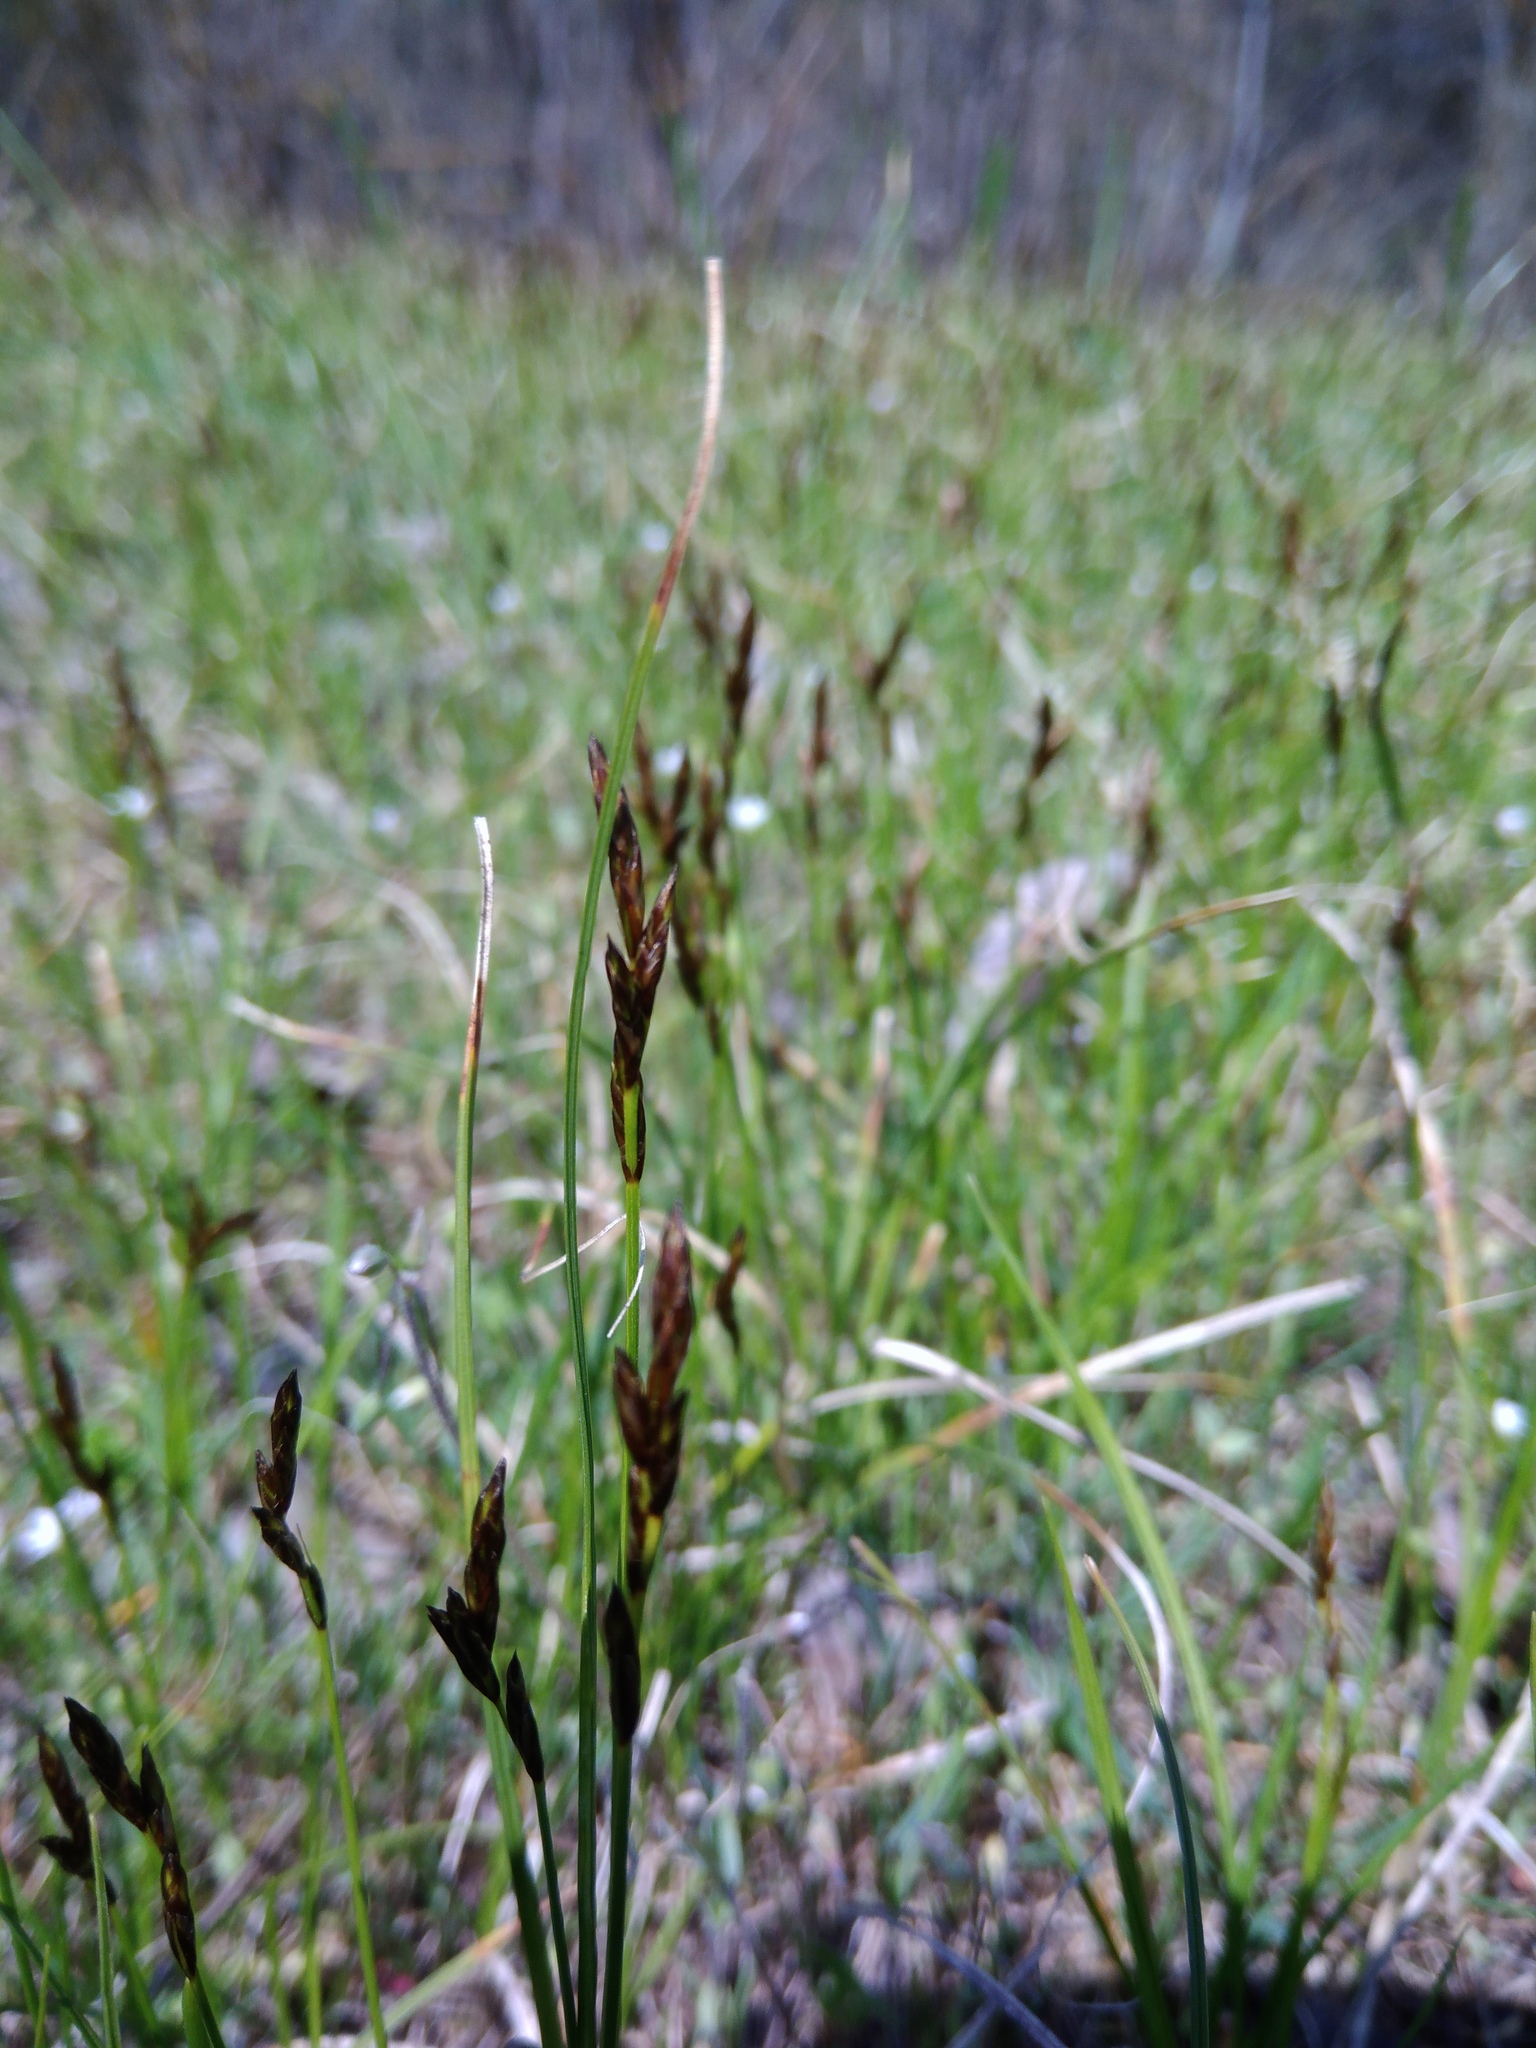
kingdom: Plantae
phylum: Tracheophyta
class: Liliopsida
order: Poales
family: Cyperaceae
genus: Carex
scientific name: Carex praecox
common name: Early sedge
